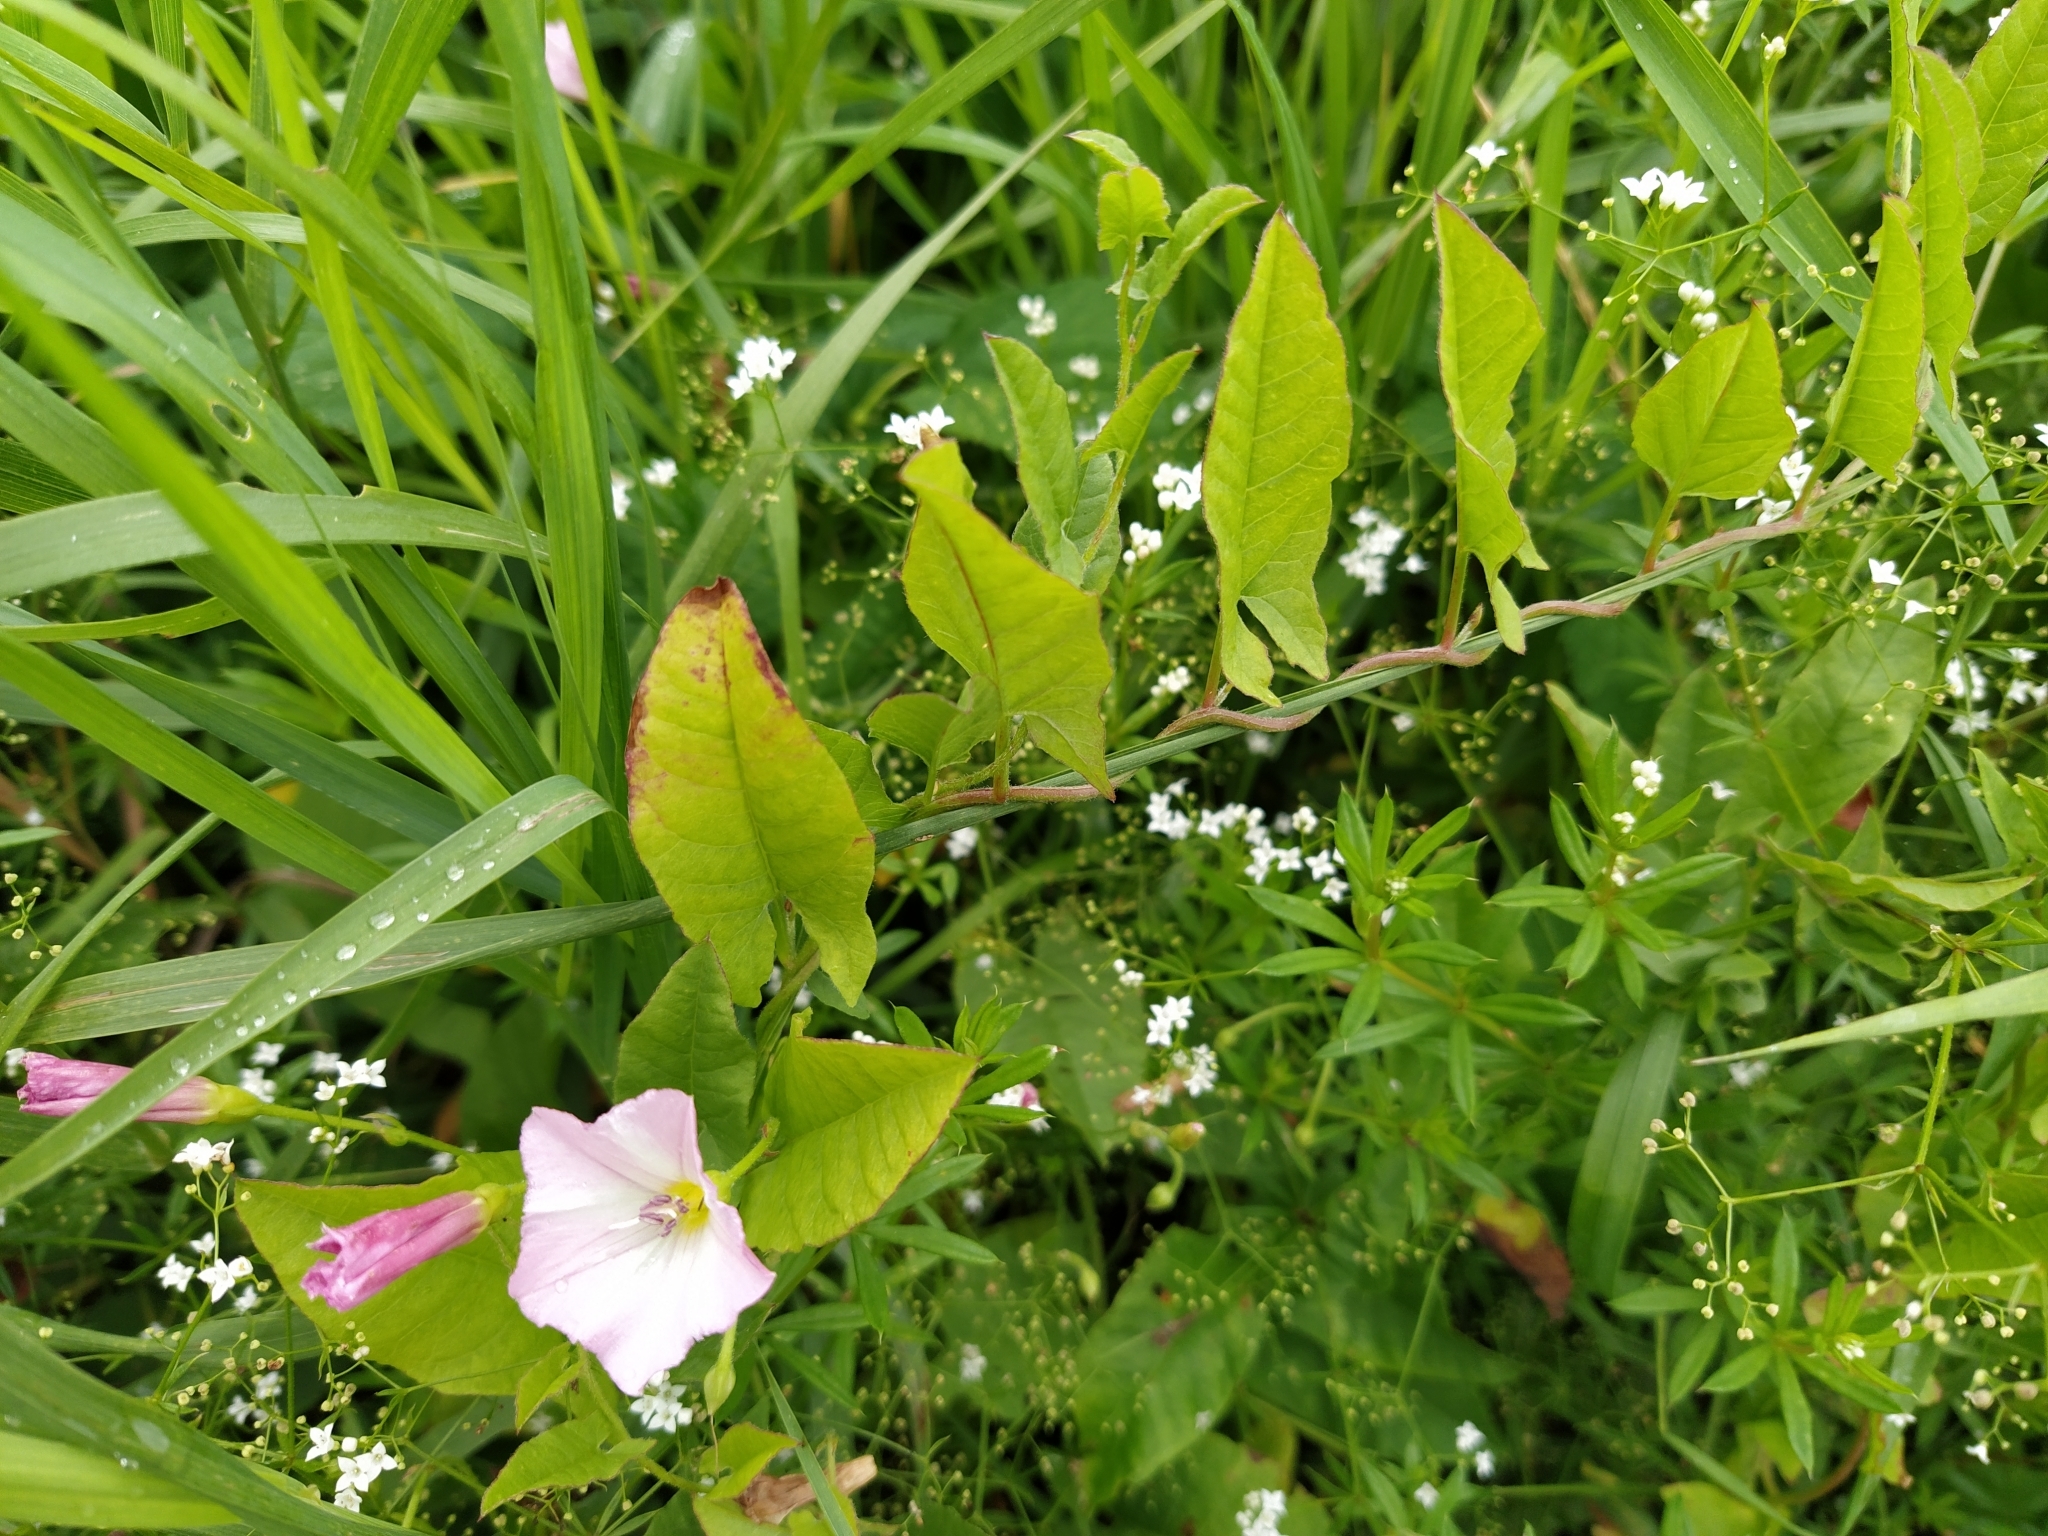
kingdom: Plantae
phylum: Tracheophyta
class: Magnoliopsida
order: Solanales
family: Convolvulaceae
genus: Convolvulus
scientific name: Convolvulus arvensis
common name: Field bindweed
